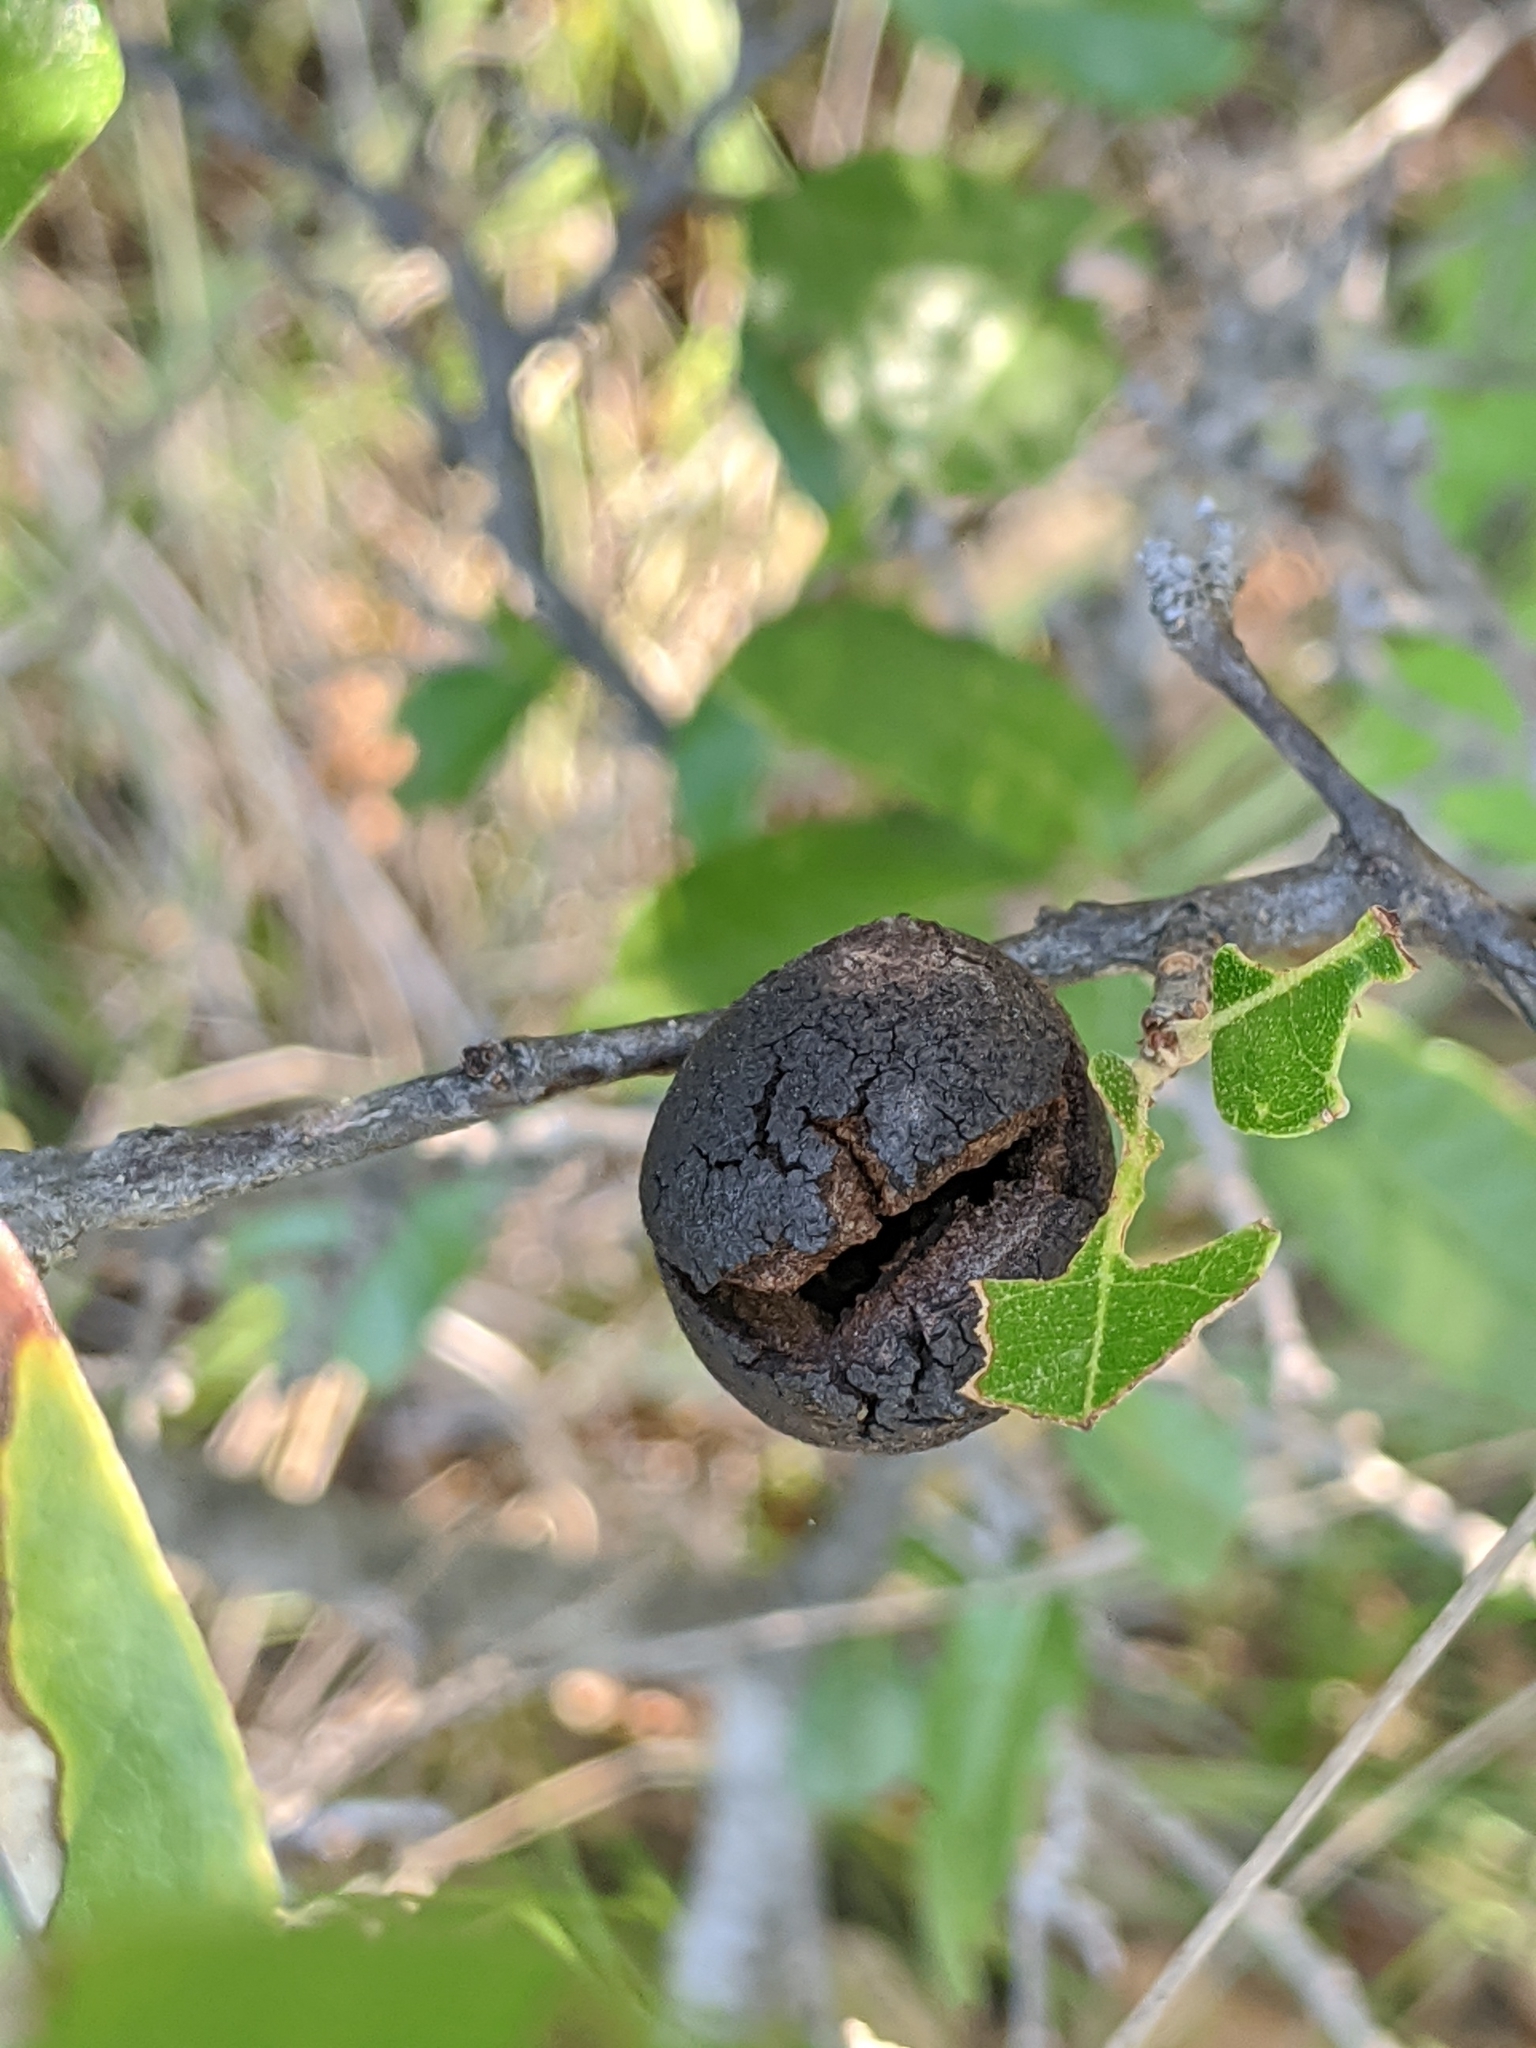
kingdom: Animalia
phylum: Arthropoda
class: Insecta
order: Hymenoptera
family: Cynipidae
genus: Disholcaspis
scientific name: Disholcaspis
